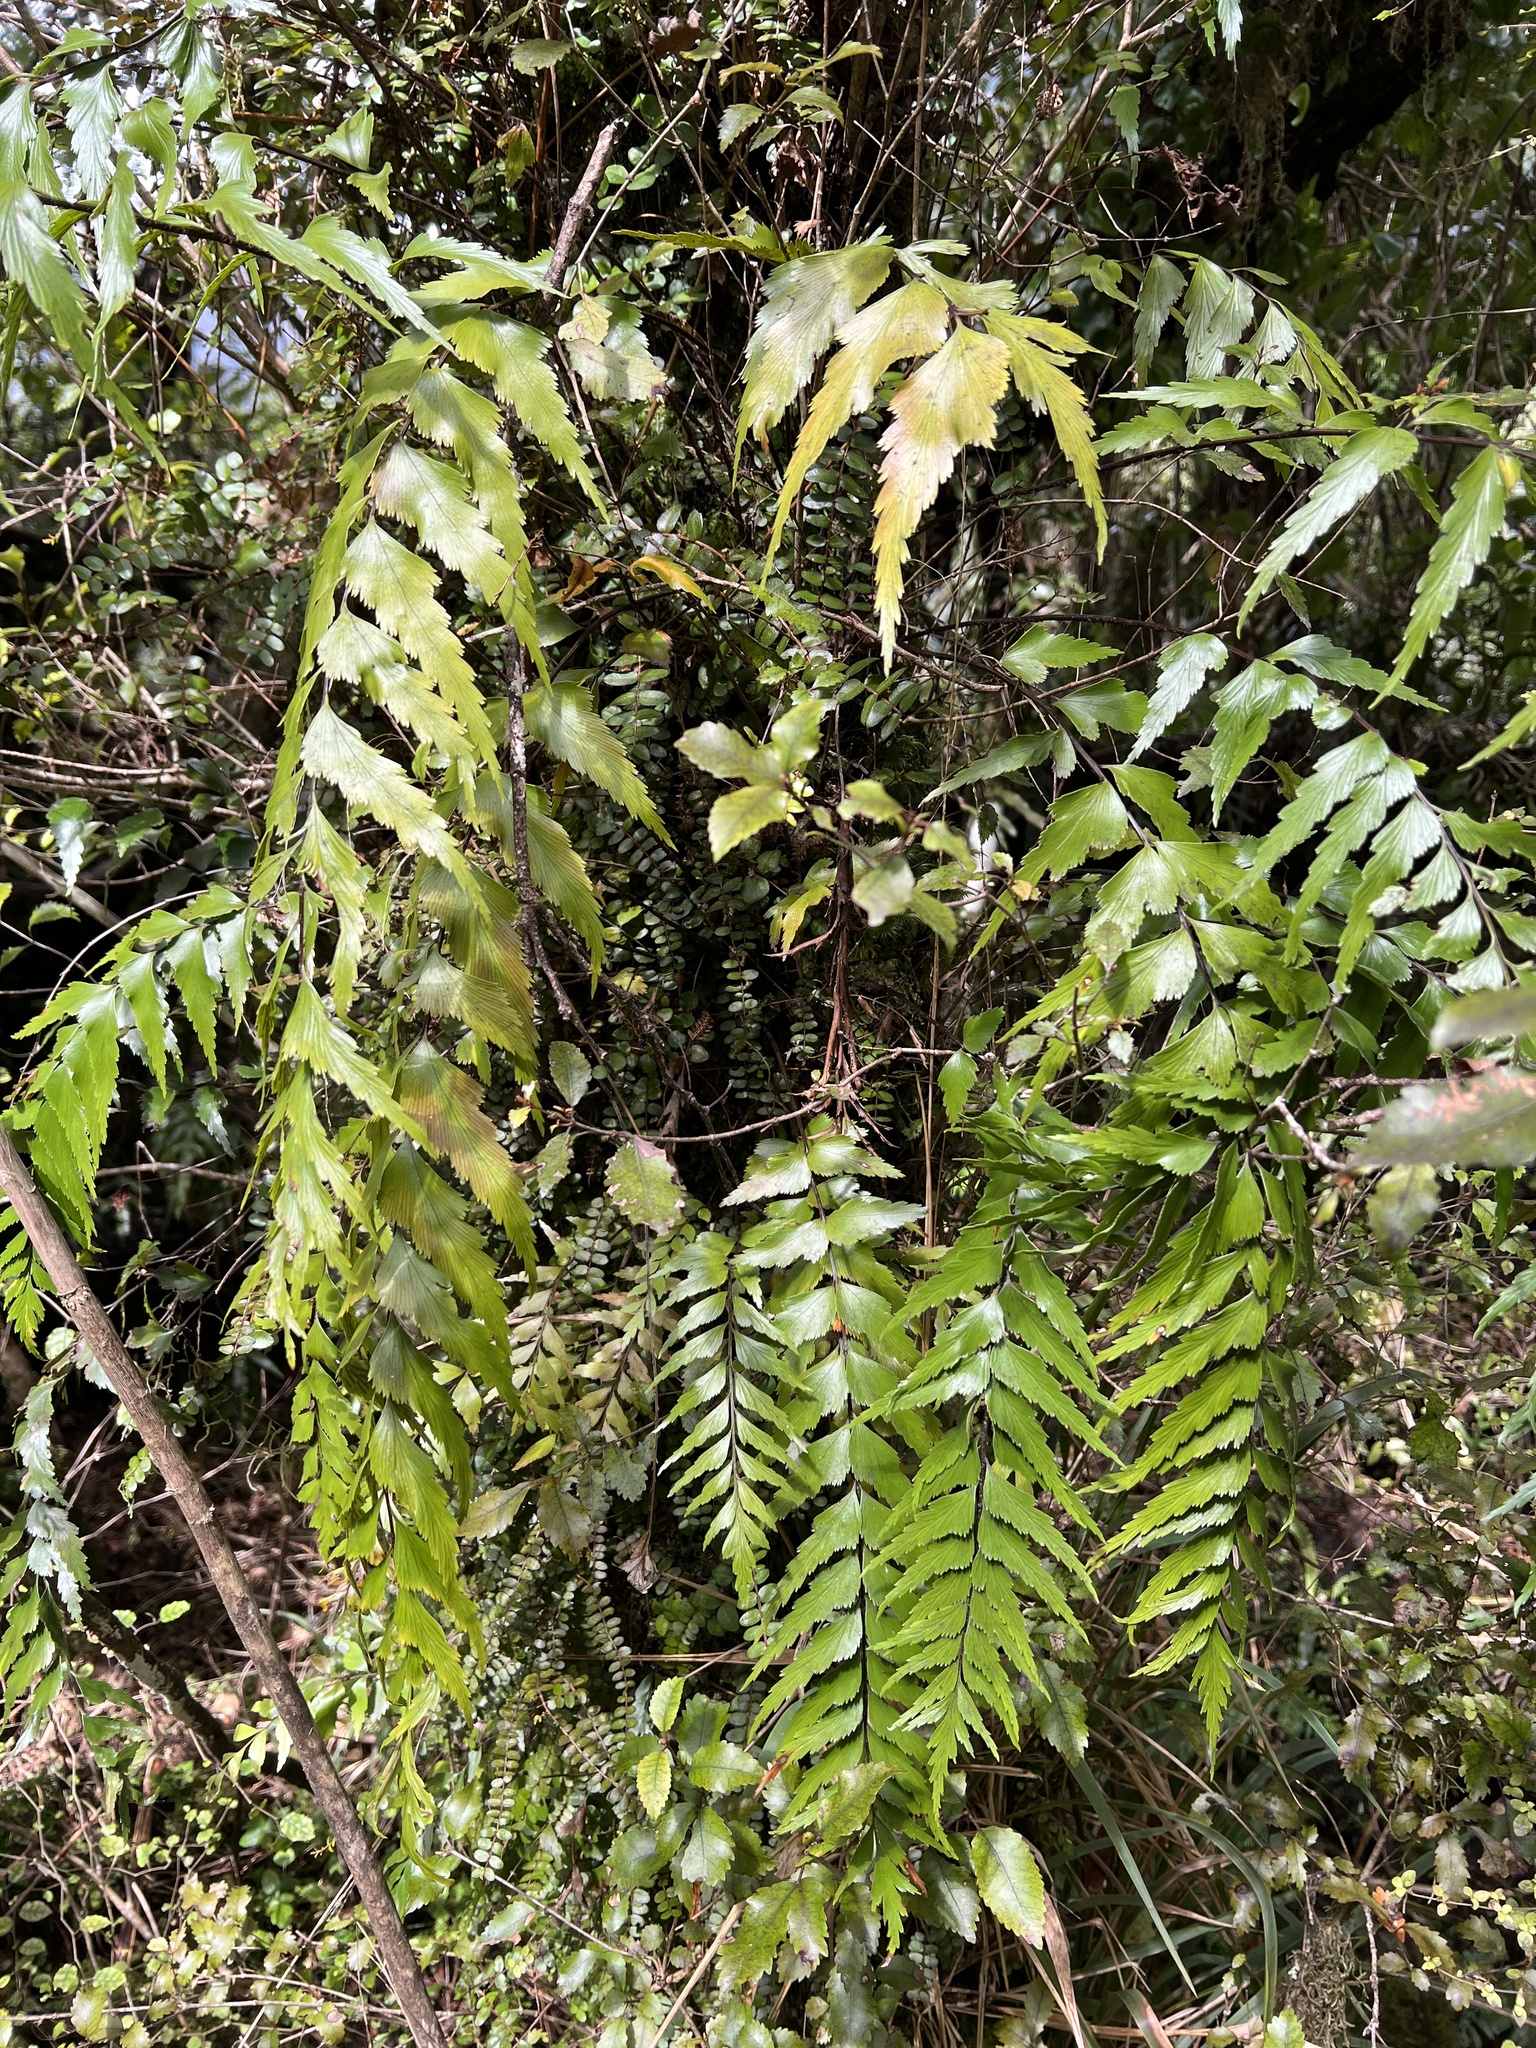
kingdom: Plantae
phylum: Tracheophyta
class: Polypodiopsida
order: Polypodiales
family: Aspleniaceae
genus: Asplenium
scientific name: Asplenium polyodon
